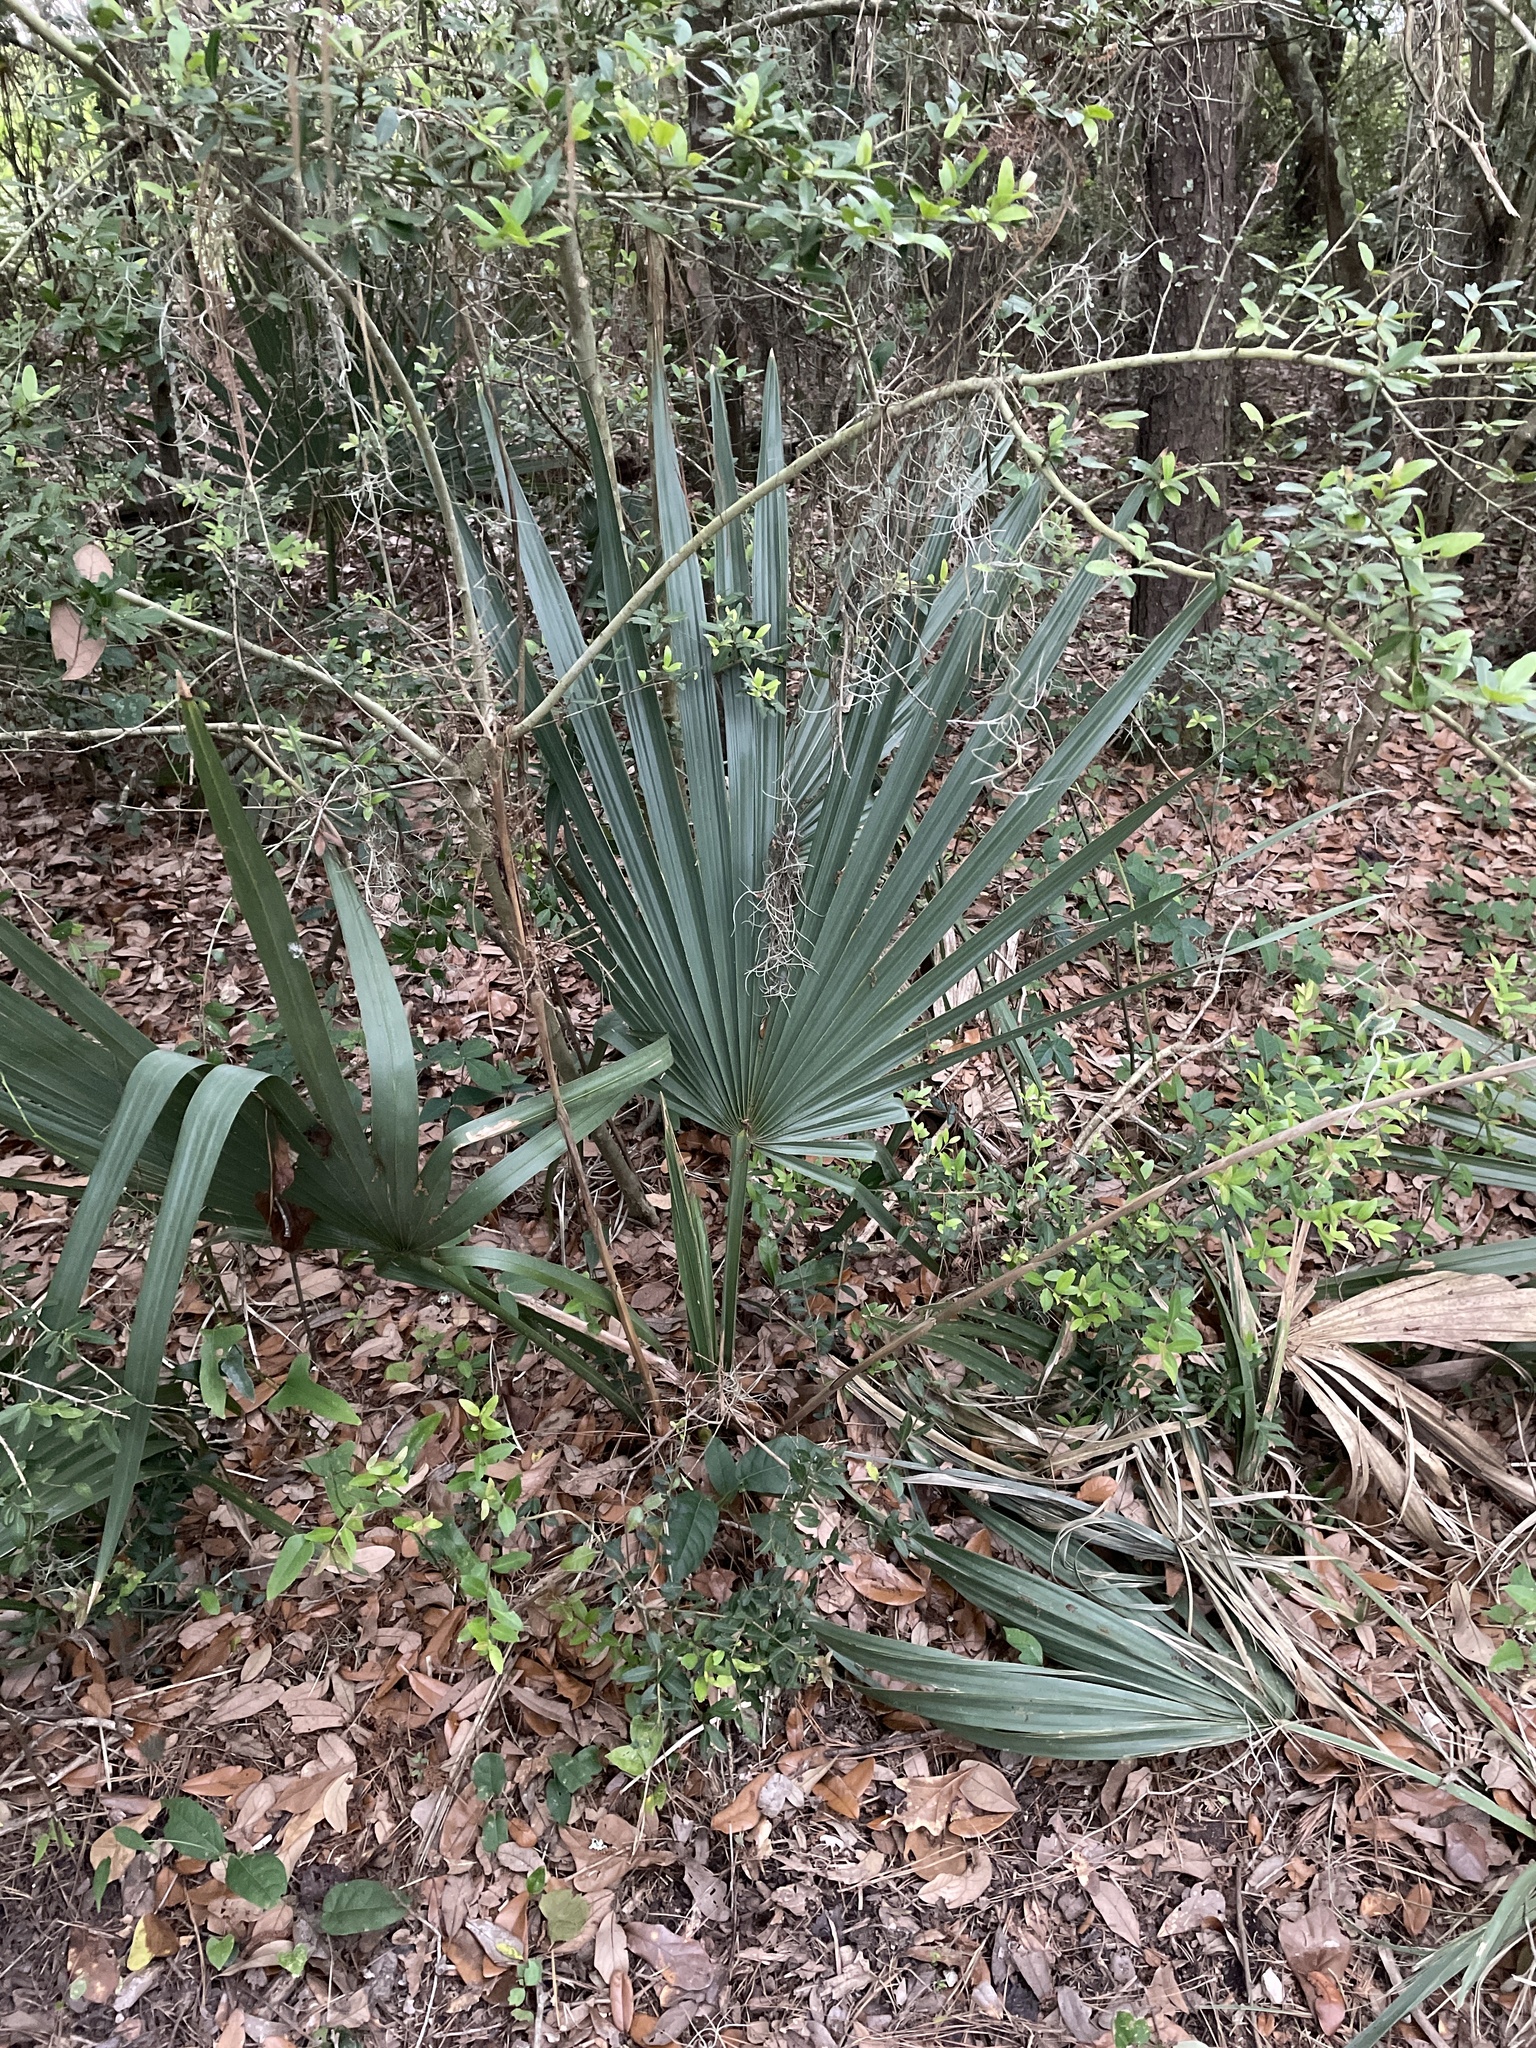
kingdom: Plantae
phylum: Tracheophyta
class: Liliopsida
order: Arecales
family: Arecaceae
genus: Sabal
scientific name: Sabal minor
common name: Dwarf palmetto
